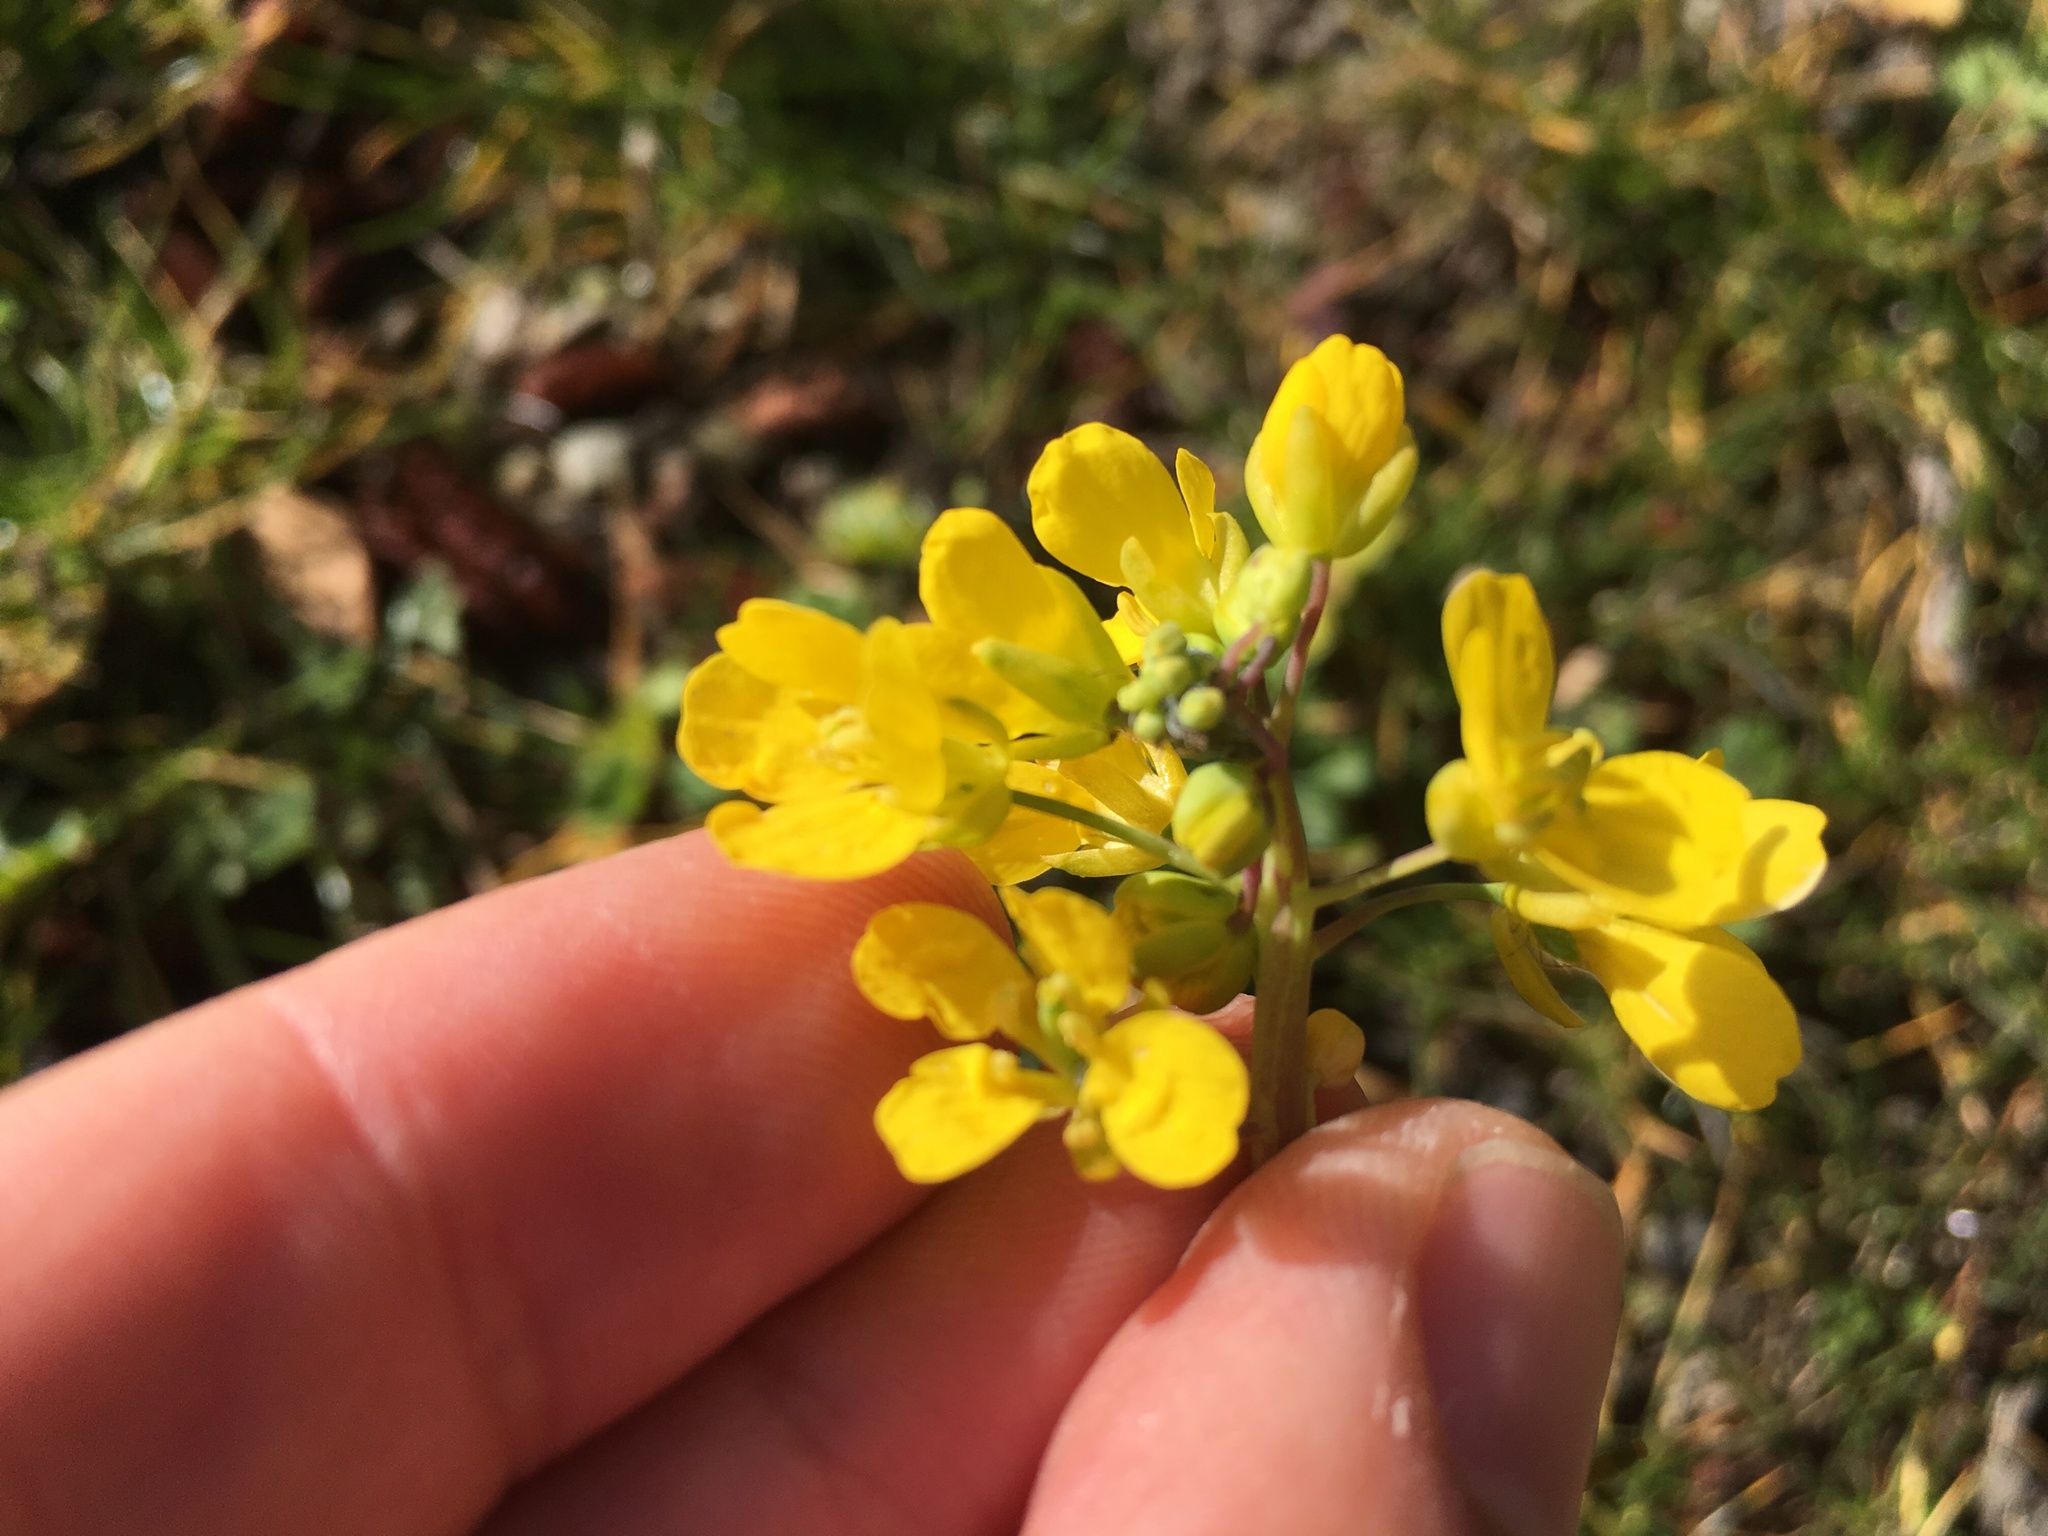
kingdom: Plantae
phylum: Tracheophyta
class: Magnoliopsida
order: Brassicales
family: Brassicaceae
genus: Brassica
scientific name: Brassica rapa
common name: Field mustard
